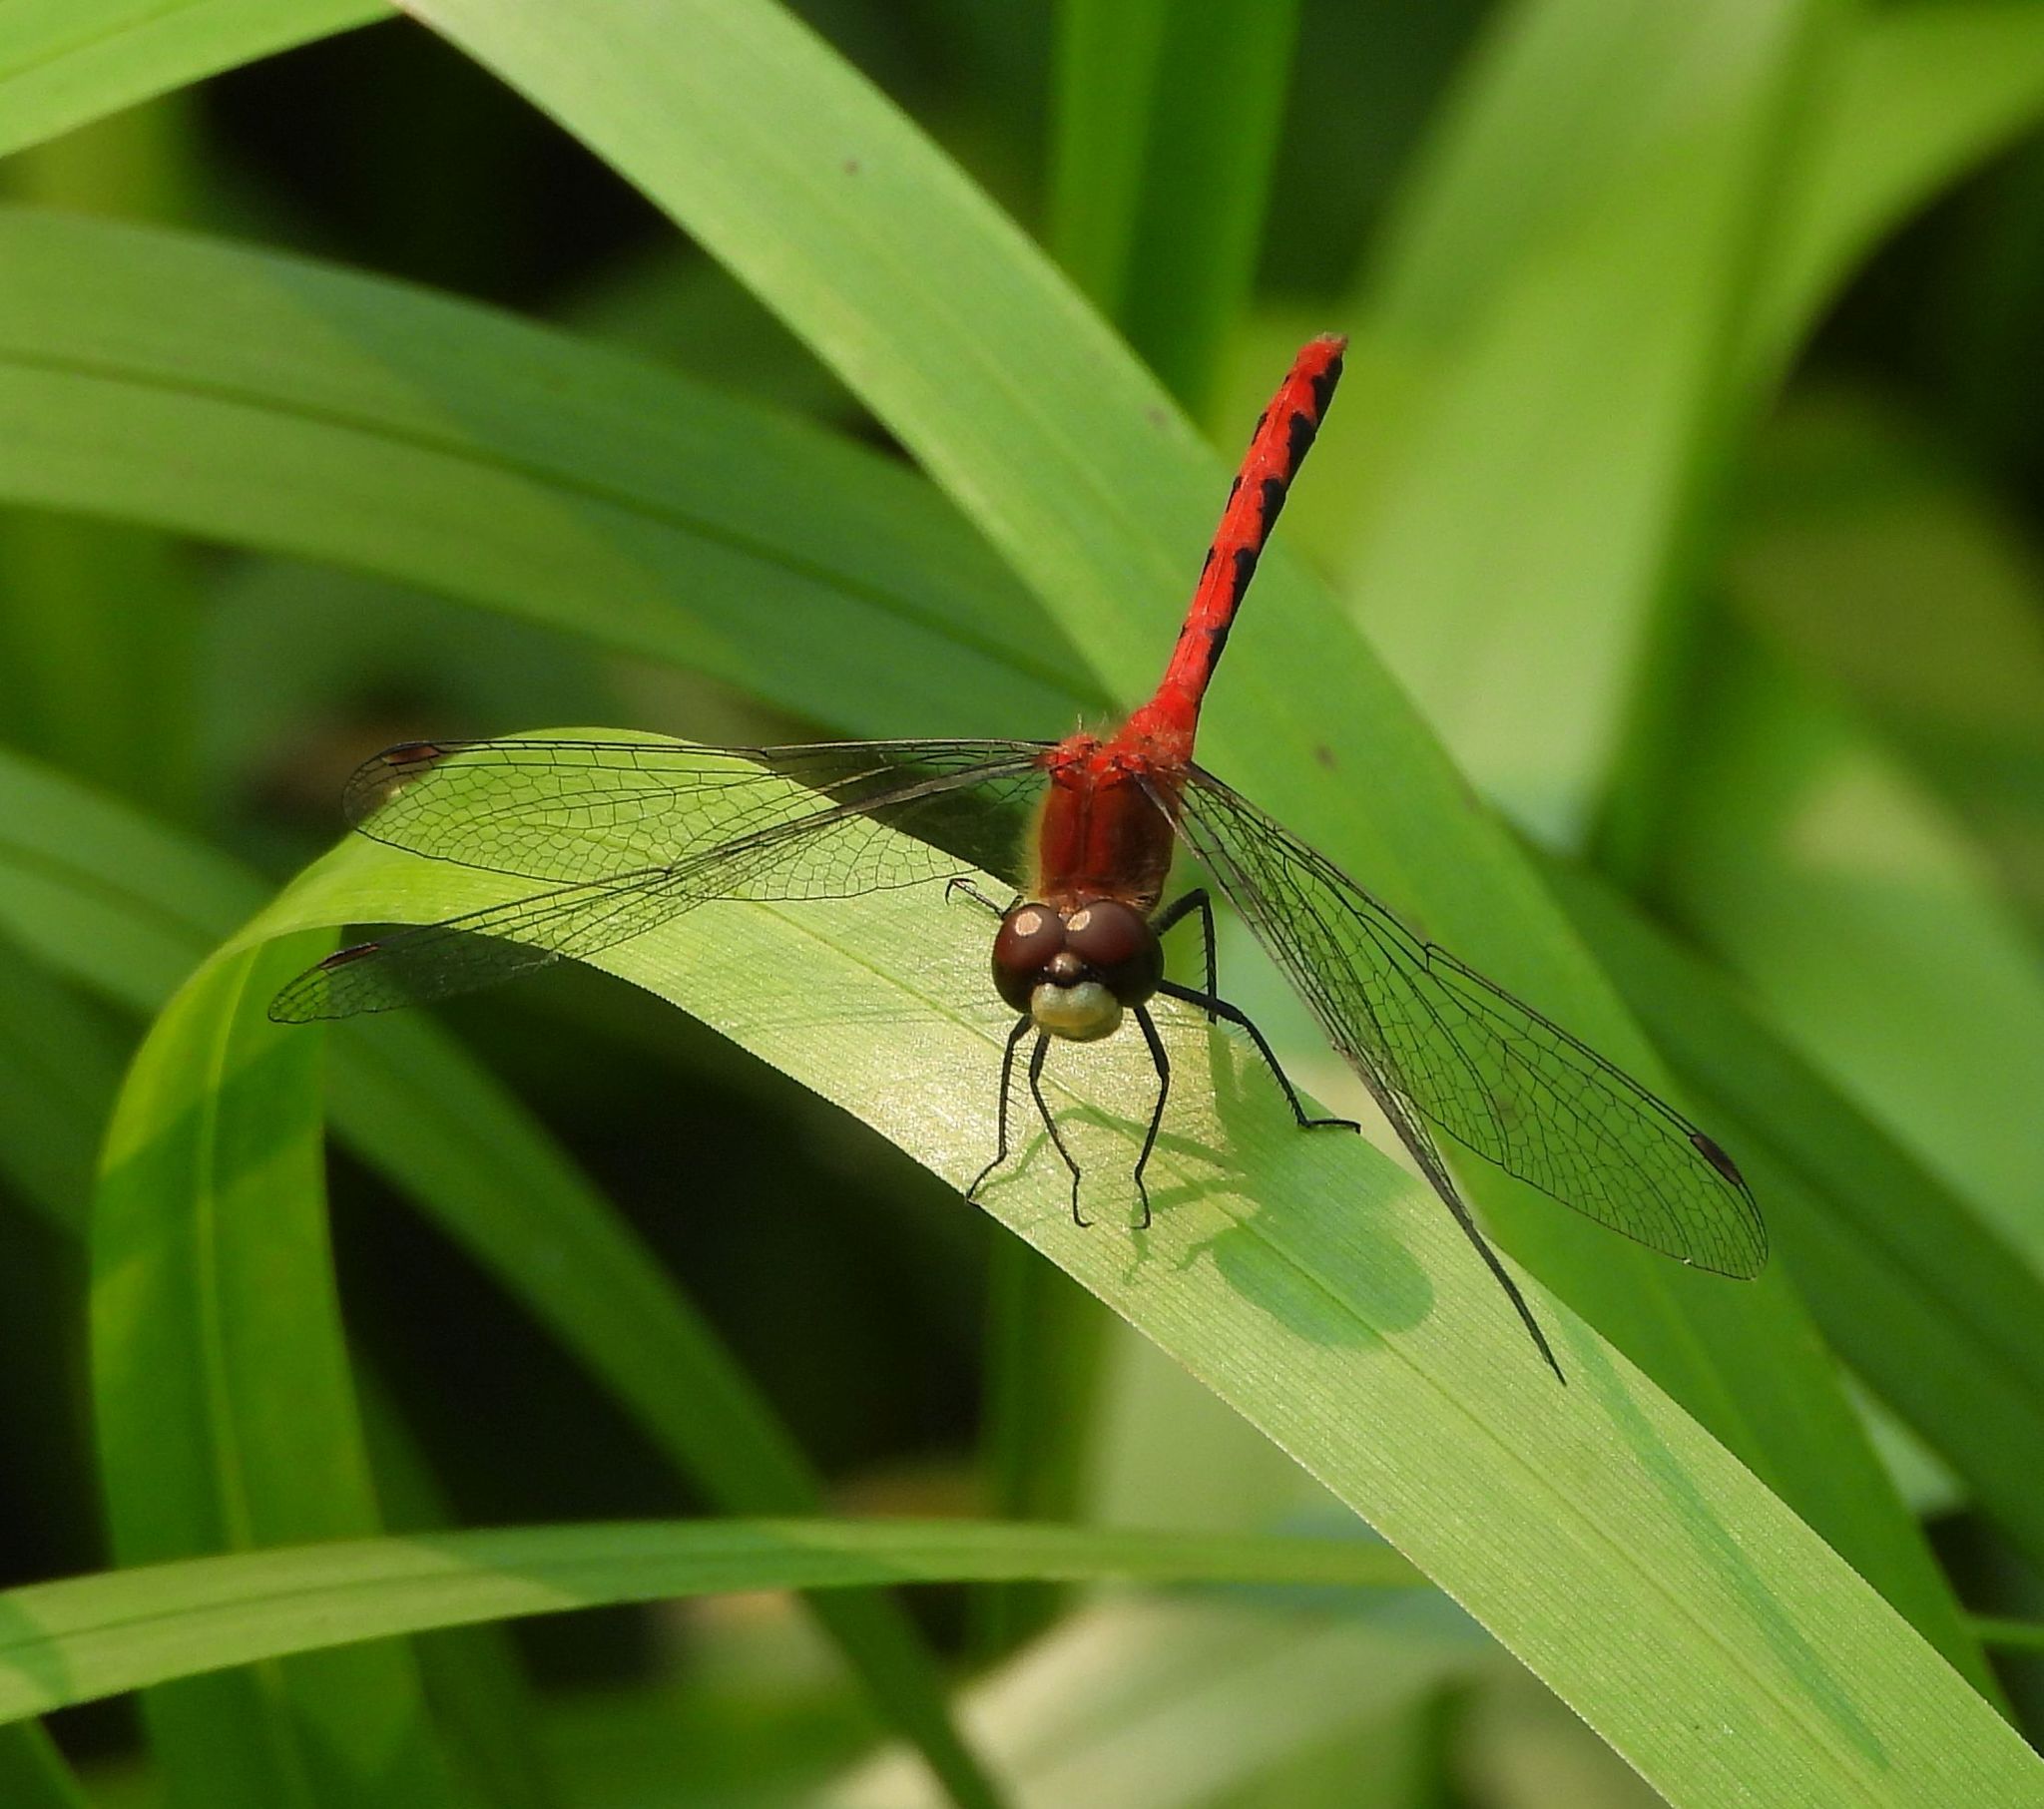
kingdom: Animalia
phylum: Arthropoda
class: Insecta
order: Odonata
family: Libellulidae
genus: Sympetrum
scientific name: Sympetrum obtrusum
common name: White-faced meadowhawk
